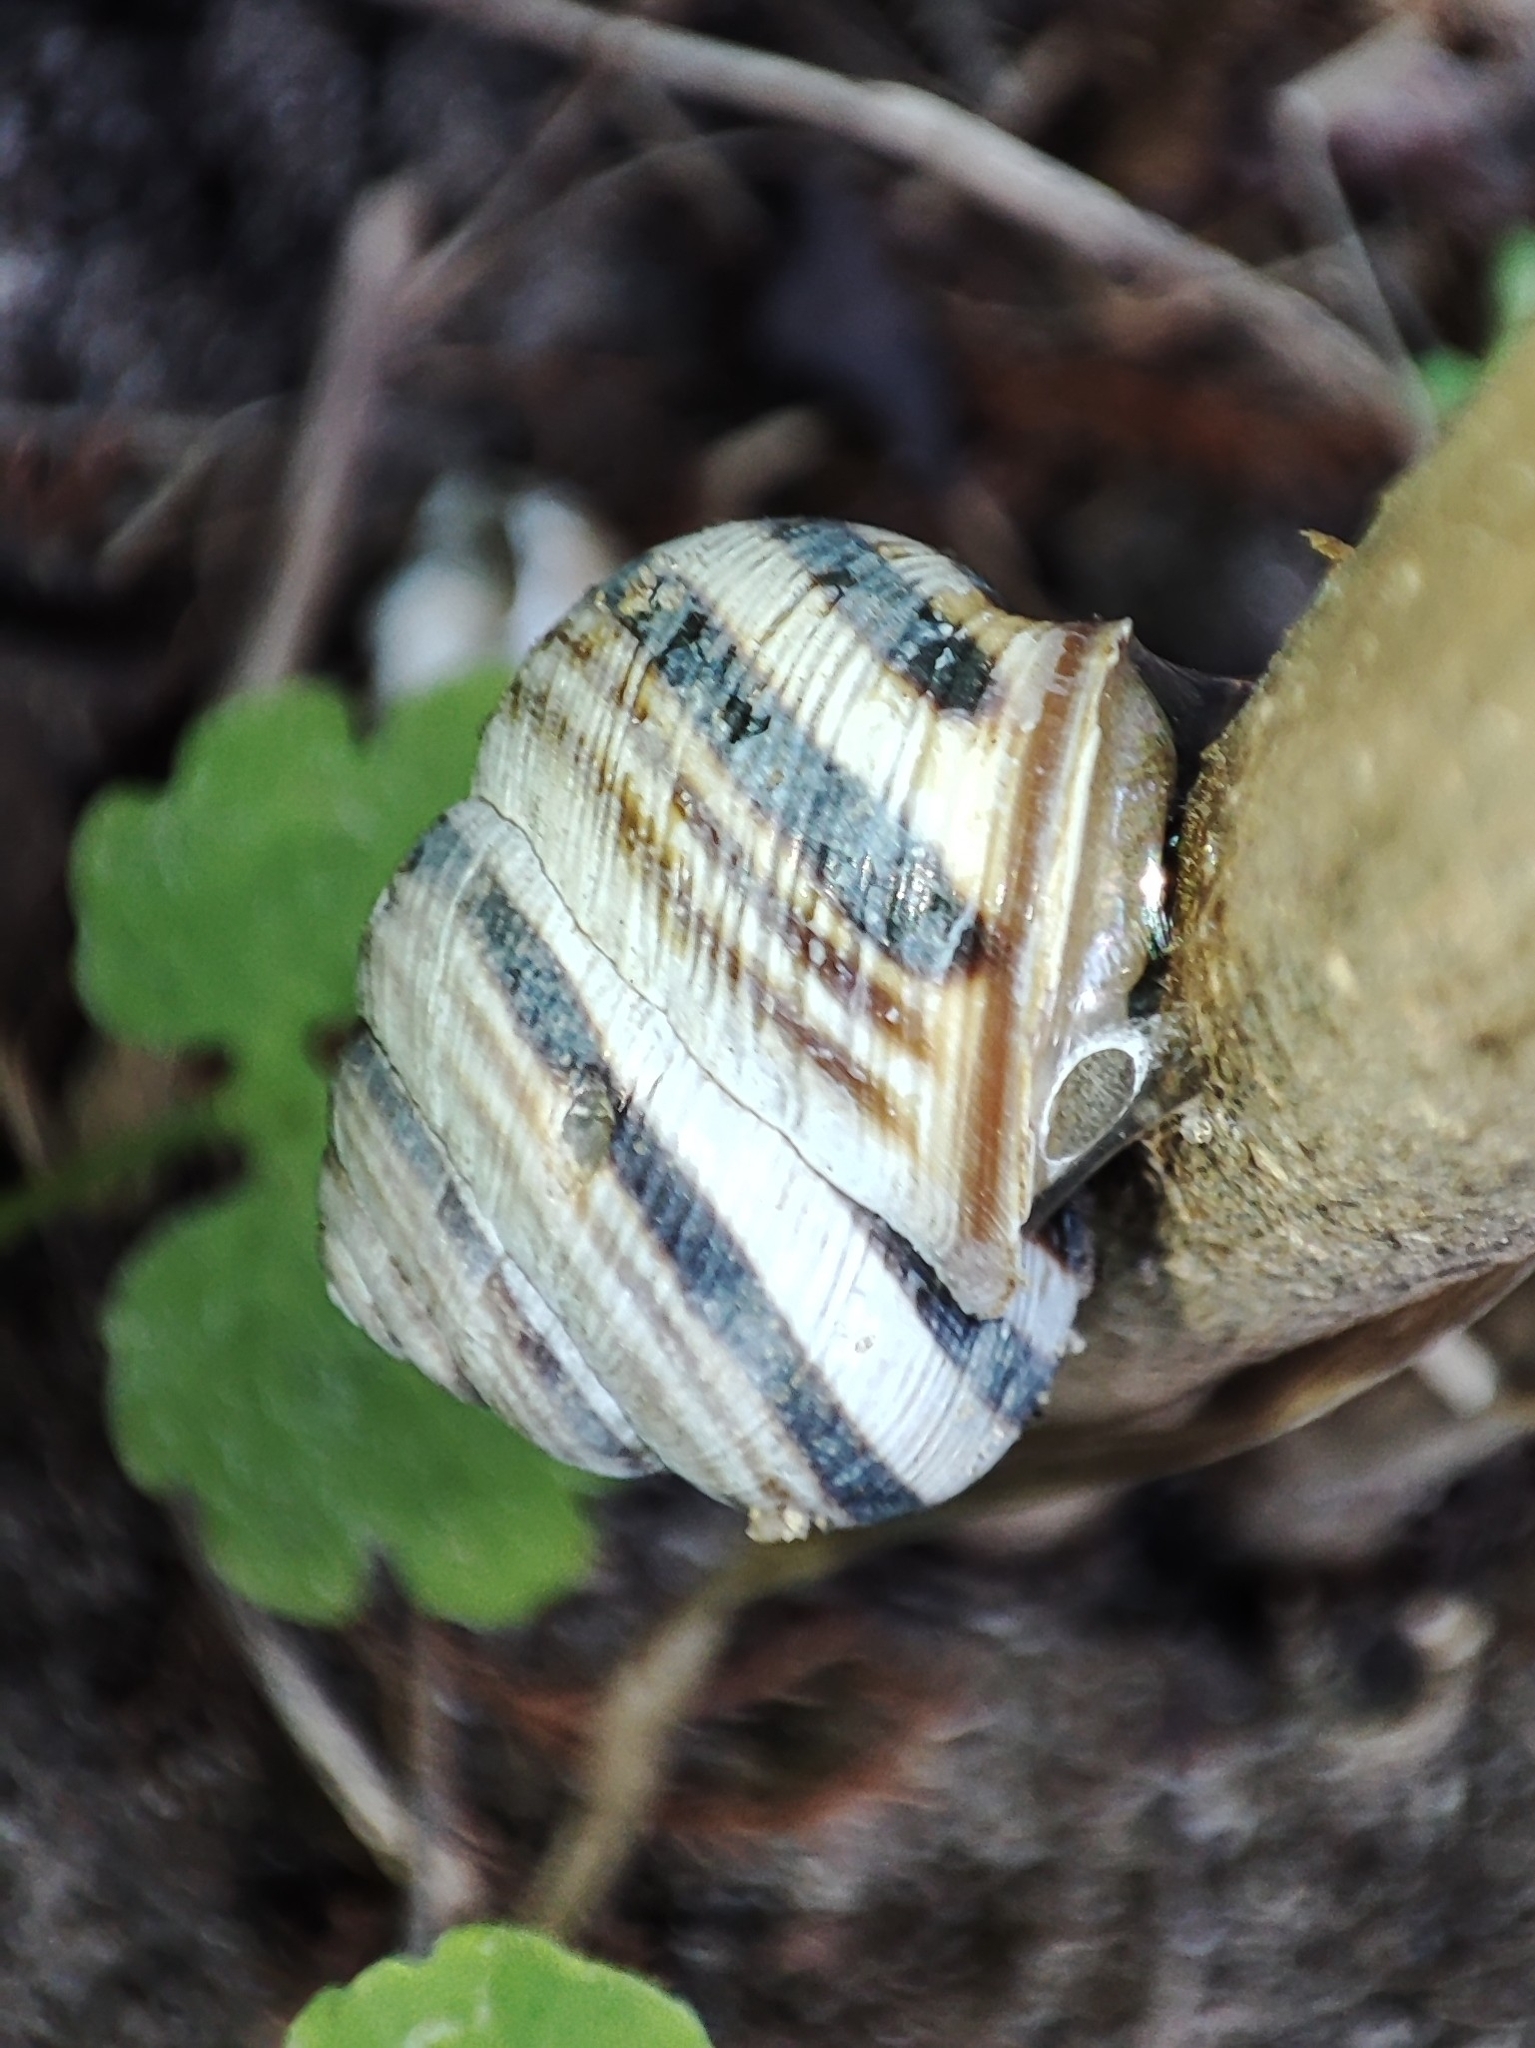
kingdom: Animalia
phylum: Mollusca
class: Gastropoda
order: Stylommatophora
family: Helicidae
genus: Caucasotachea
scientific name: Caucasotachea vindobonensis
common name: European helicid land snail
